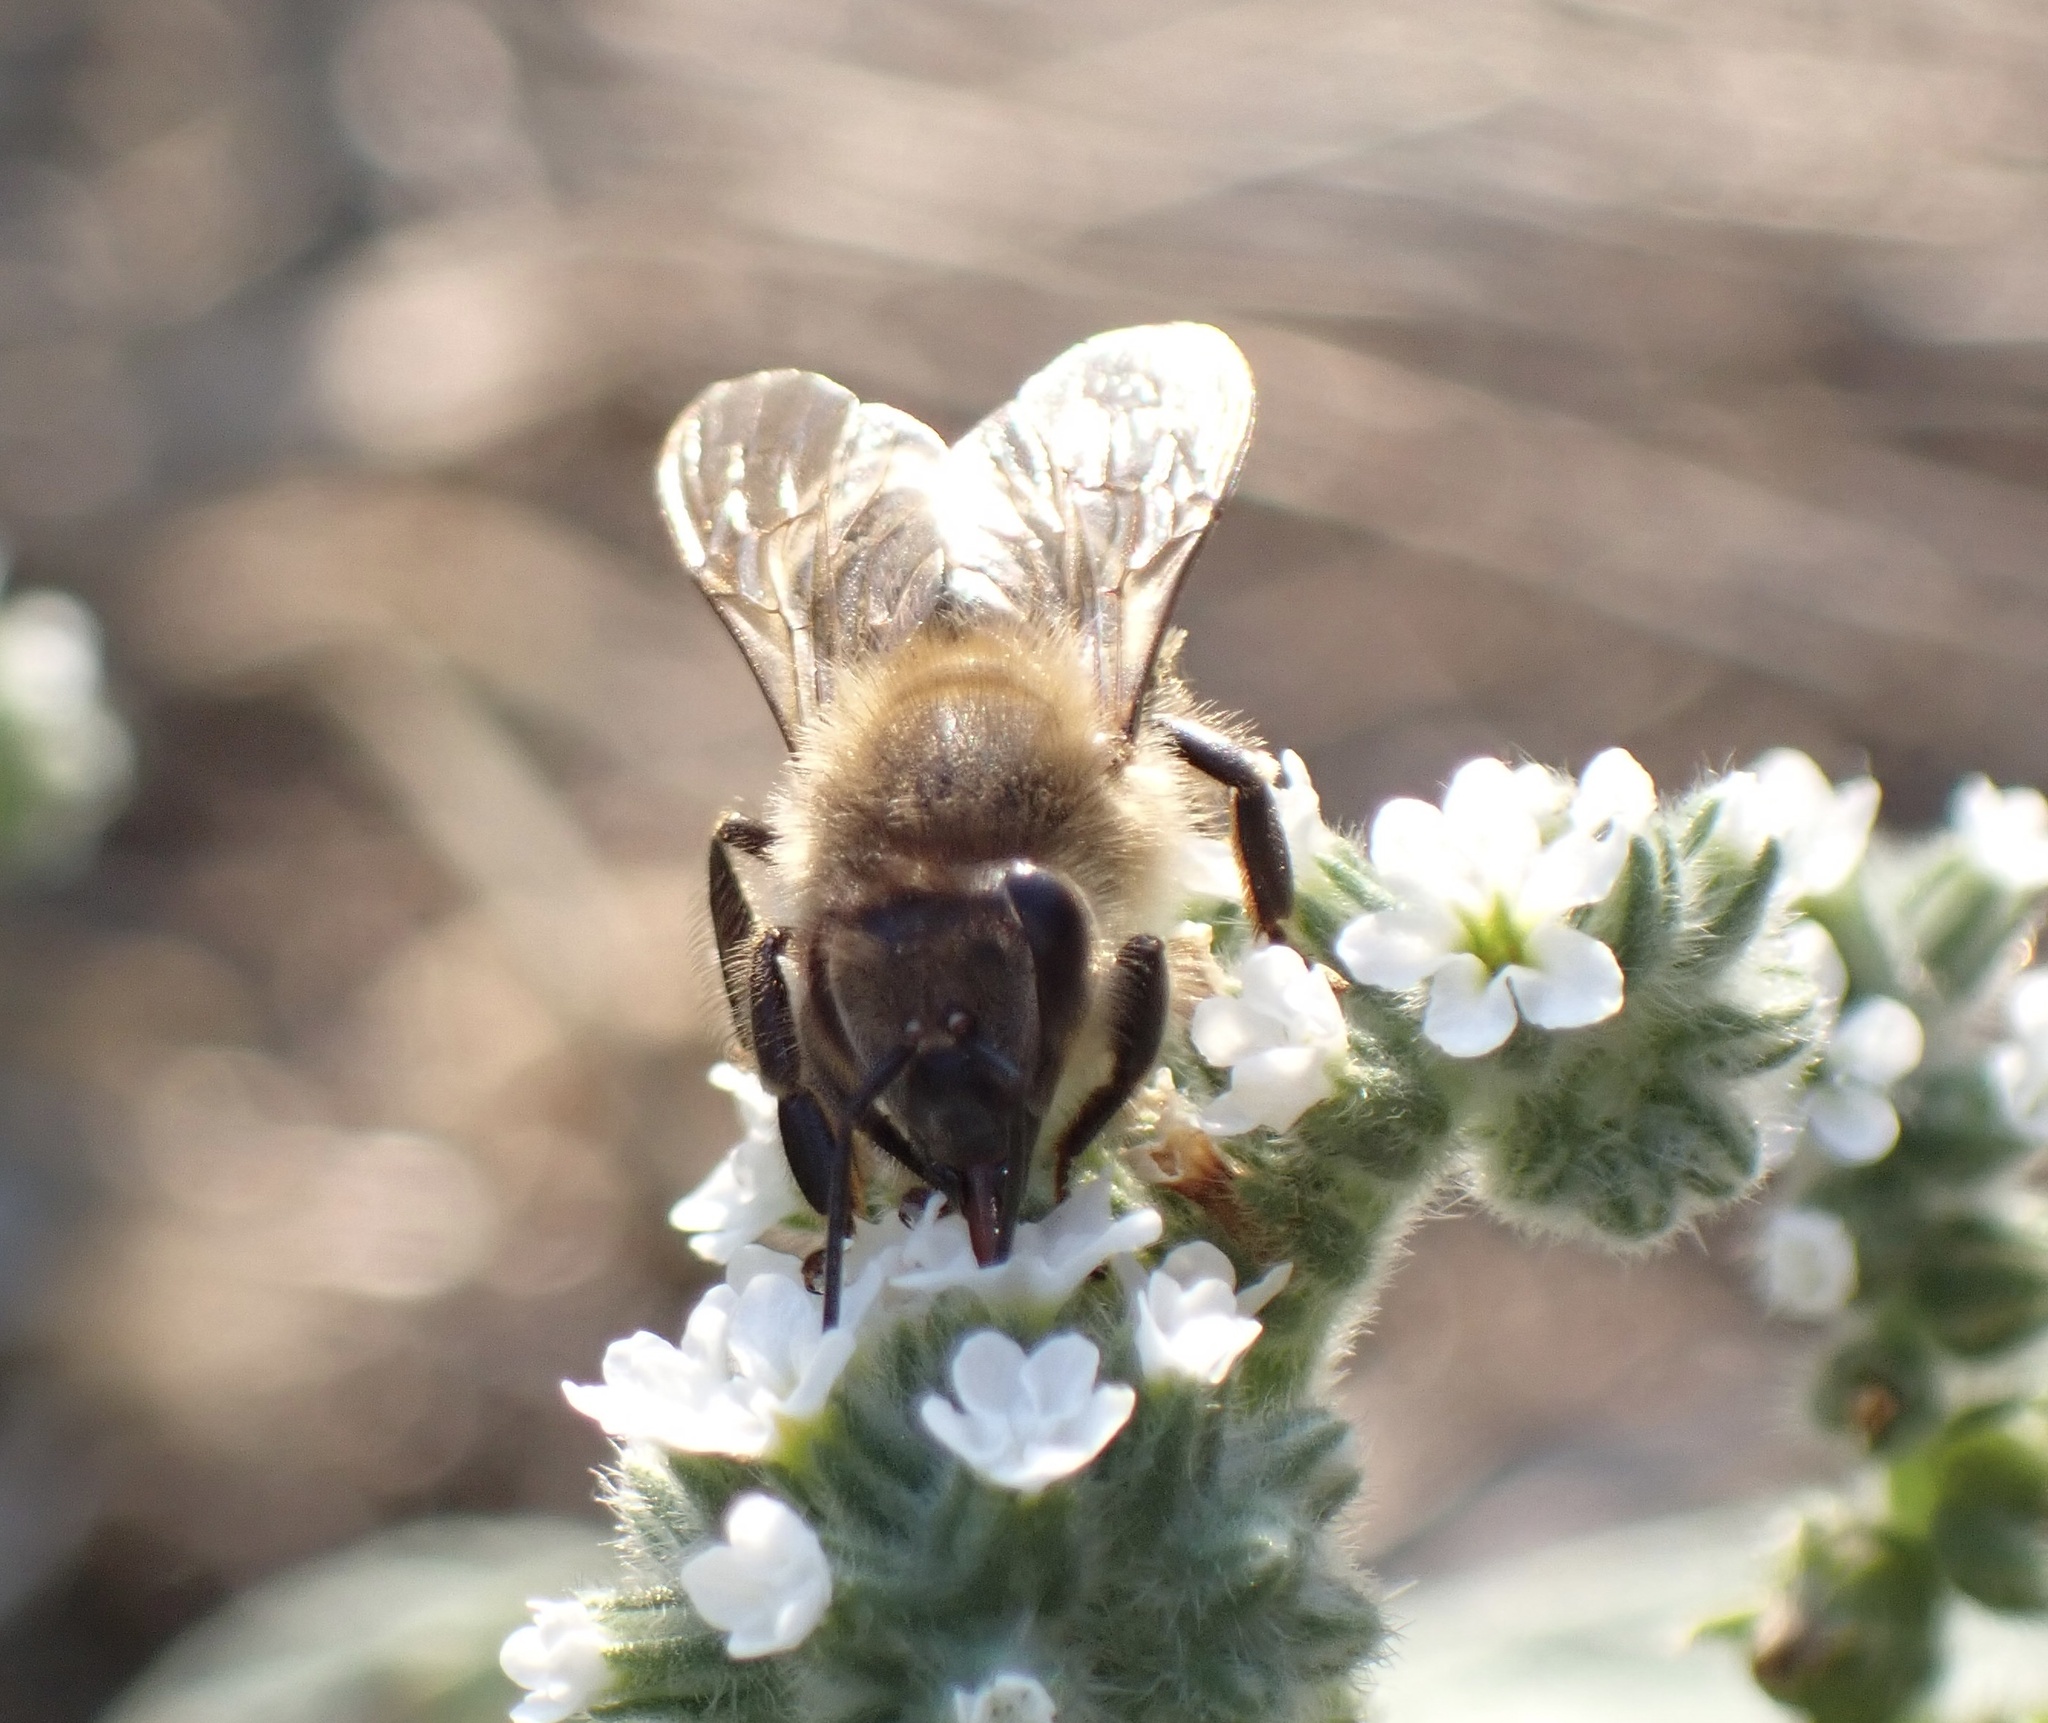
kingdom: Animalia
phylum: Arthropoda
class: Insecta
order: Hymenoptera
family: Apidae
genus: Apis
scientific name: Apis mellifera
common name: Honey bee
